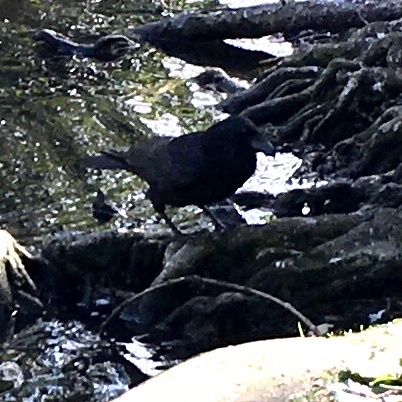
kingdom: Animalia
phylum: Chordata
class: Aves
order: Passeriformes
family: Corvidae
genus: Corvus
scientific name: Corvus corone
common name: Carrion crow
